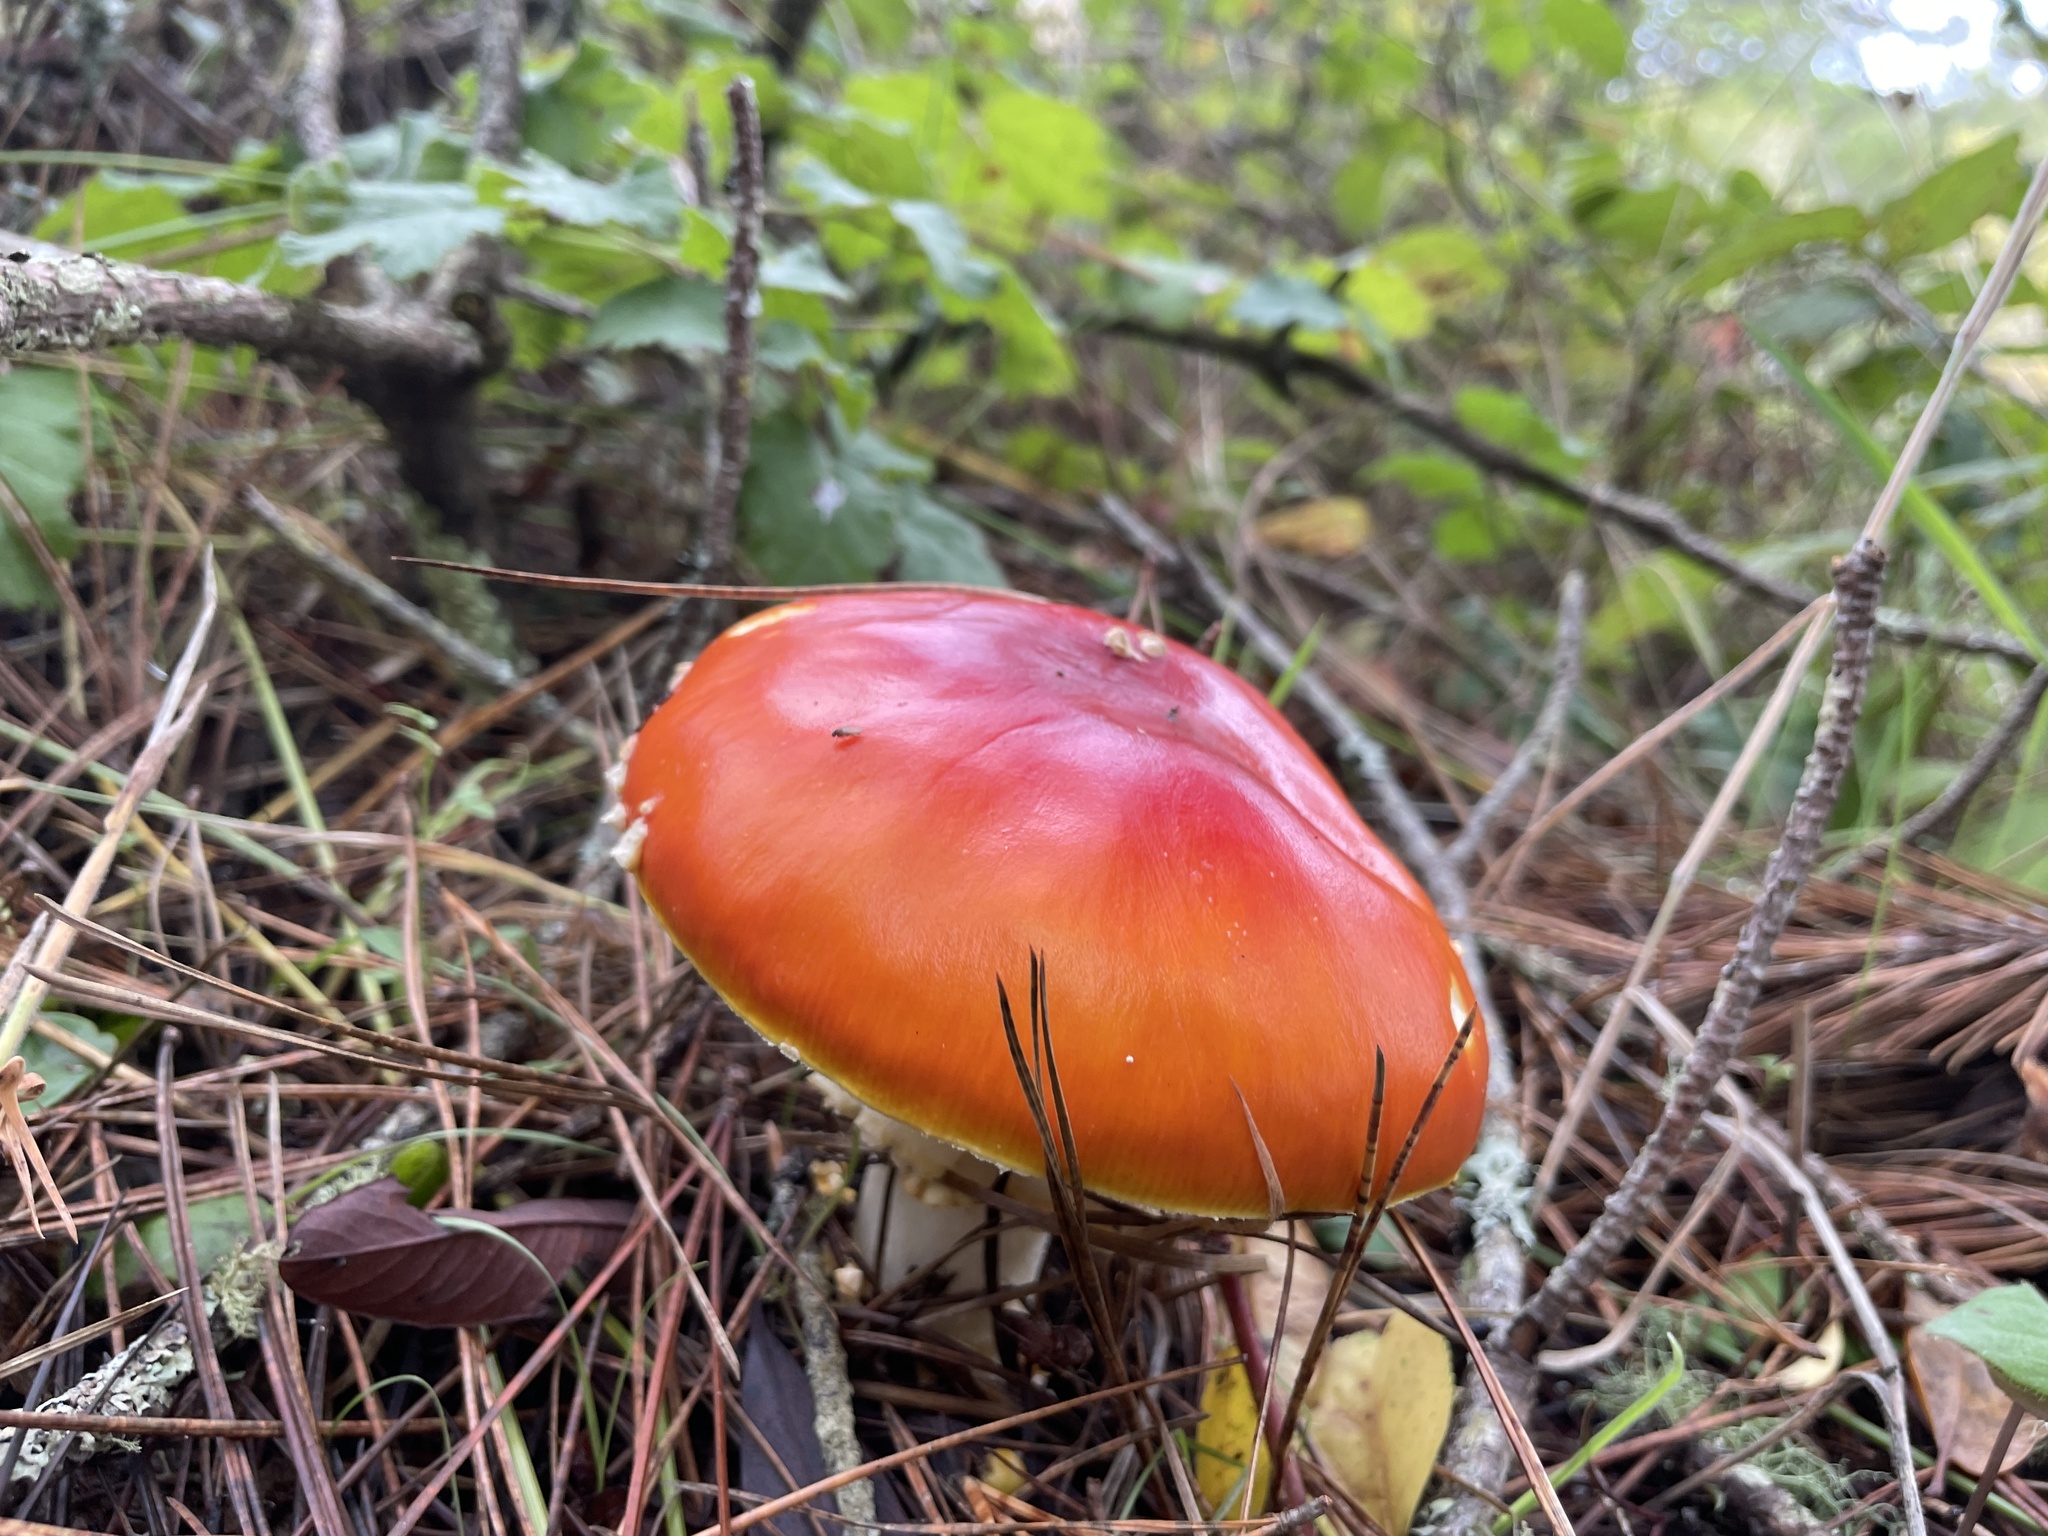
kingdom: Fungi
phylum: Basidiomycota
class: Agaricomycetes
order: Agaricales
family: Amanitaceae
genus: Amanita
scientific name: Amanita muscaria
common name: Fly agaric
